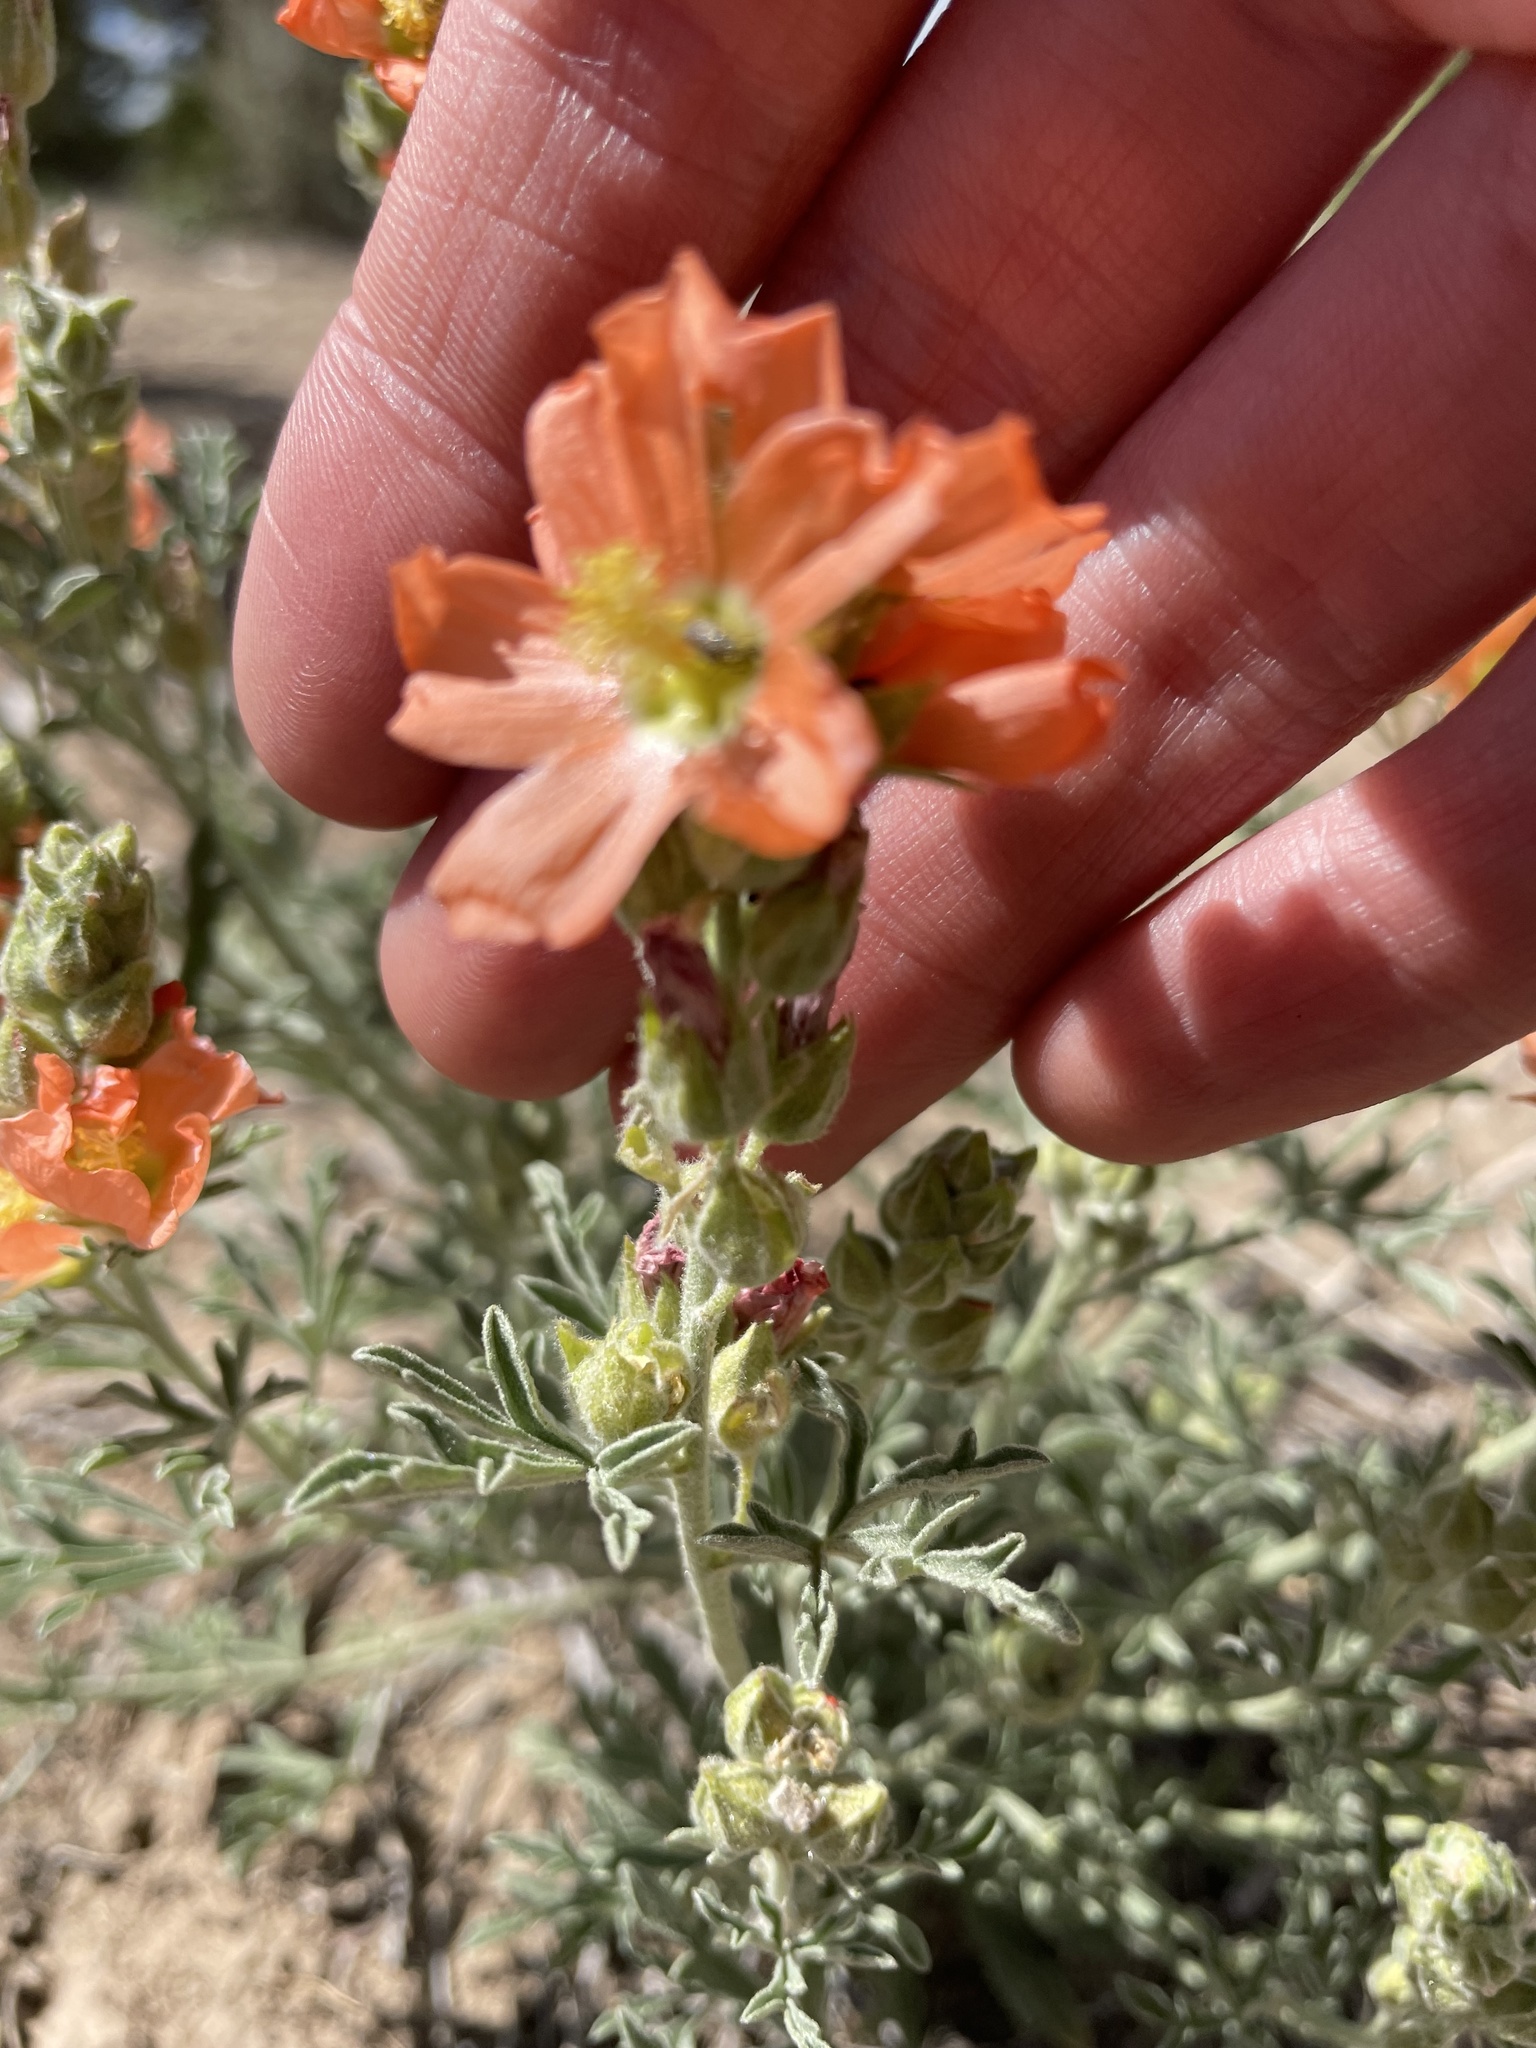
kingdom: Plantae
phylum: Tracheophyta
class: Magnoliopsida
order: Malvales
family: Malvaceae
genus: Sphaeralcea
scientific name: Sphaeralcea coccinea
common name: Moss-rose
